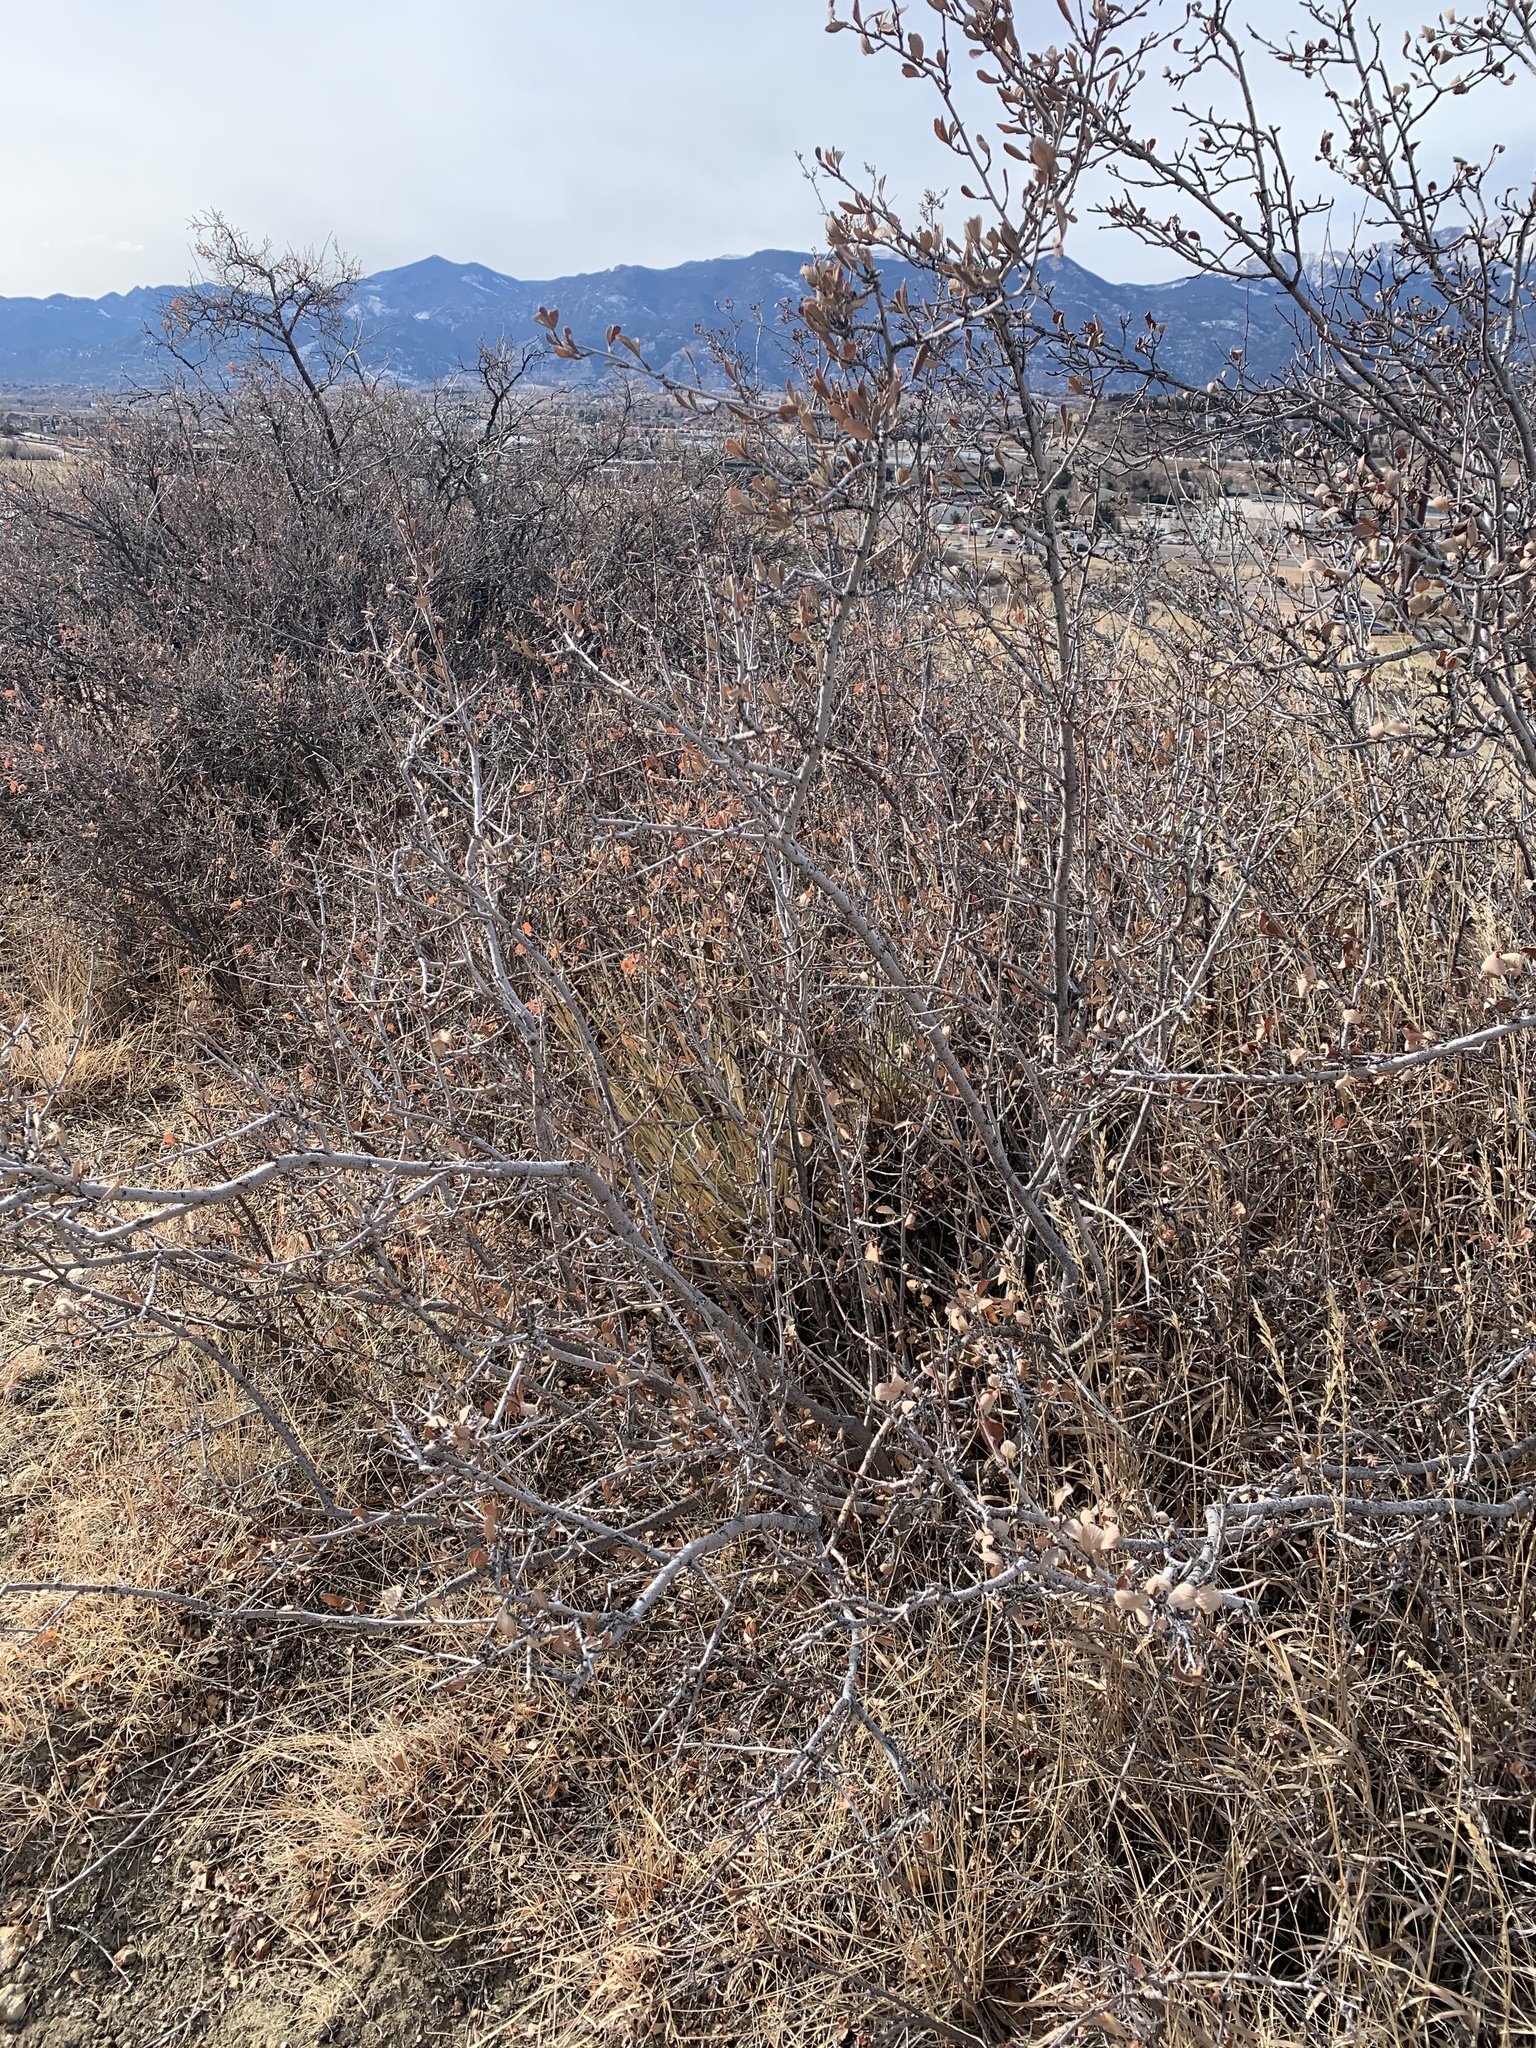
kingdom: Plantae
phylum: Tracheophyta
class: Magnoliopsida
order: Rosales
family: Rosaceae
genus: Cercocarpus
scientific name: Cercocarpus montanus
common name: Alder-leaf cercocarpus
